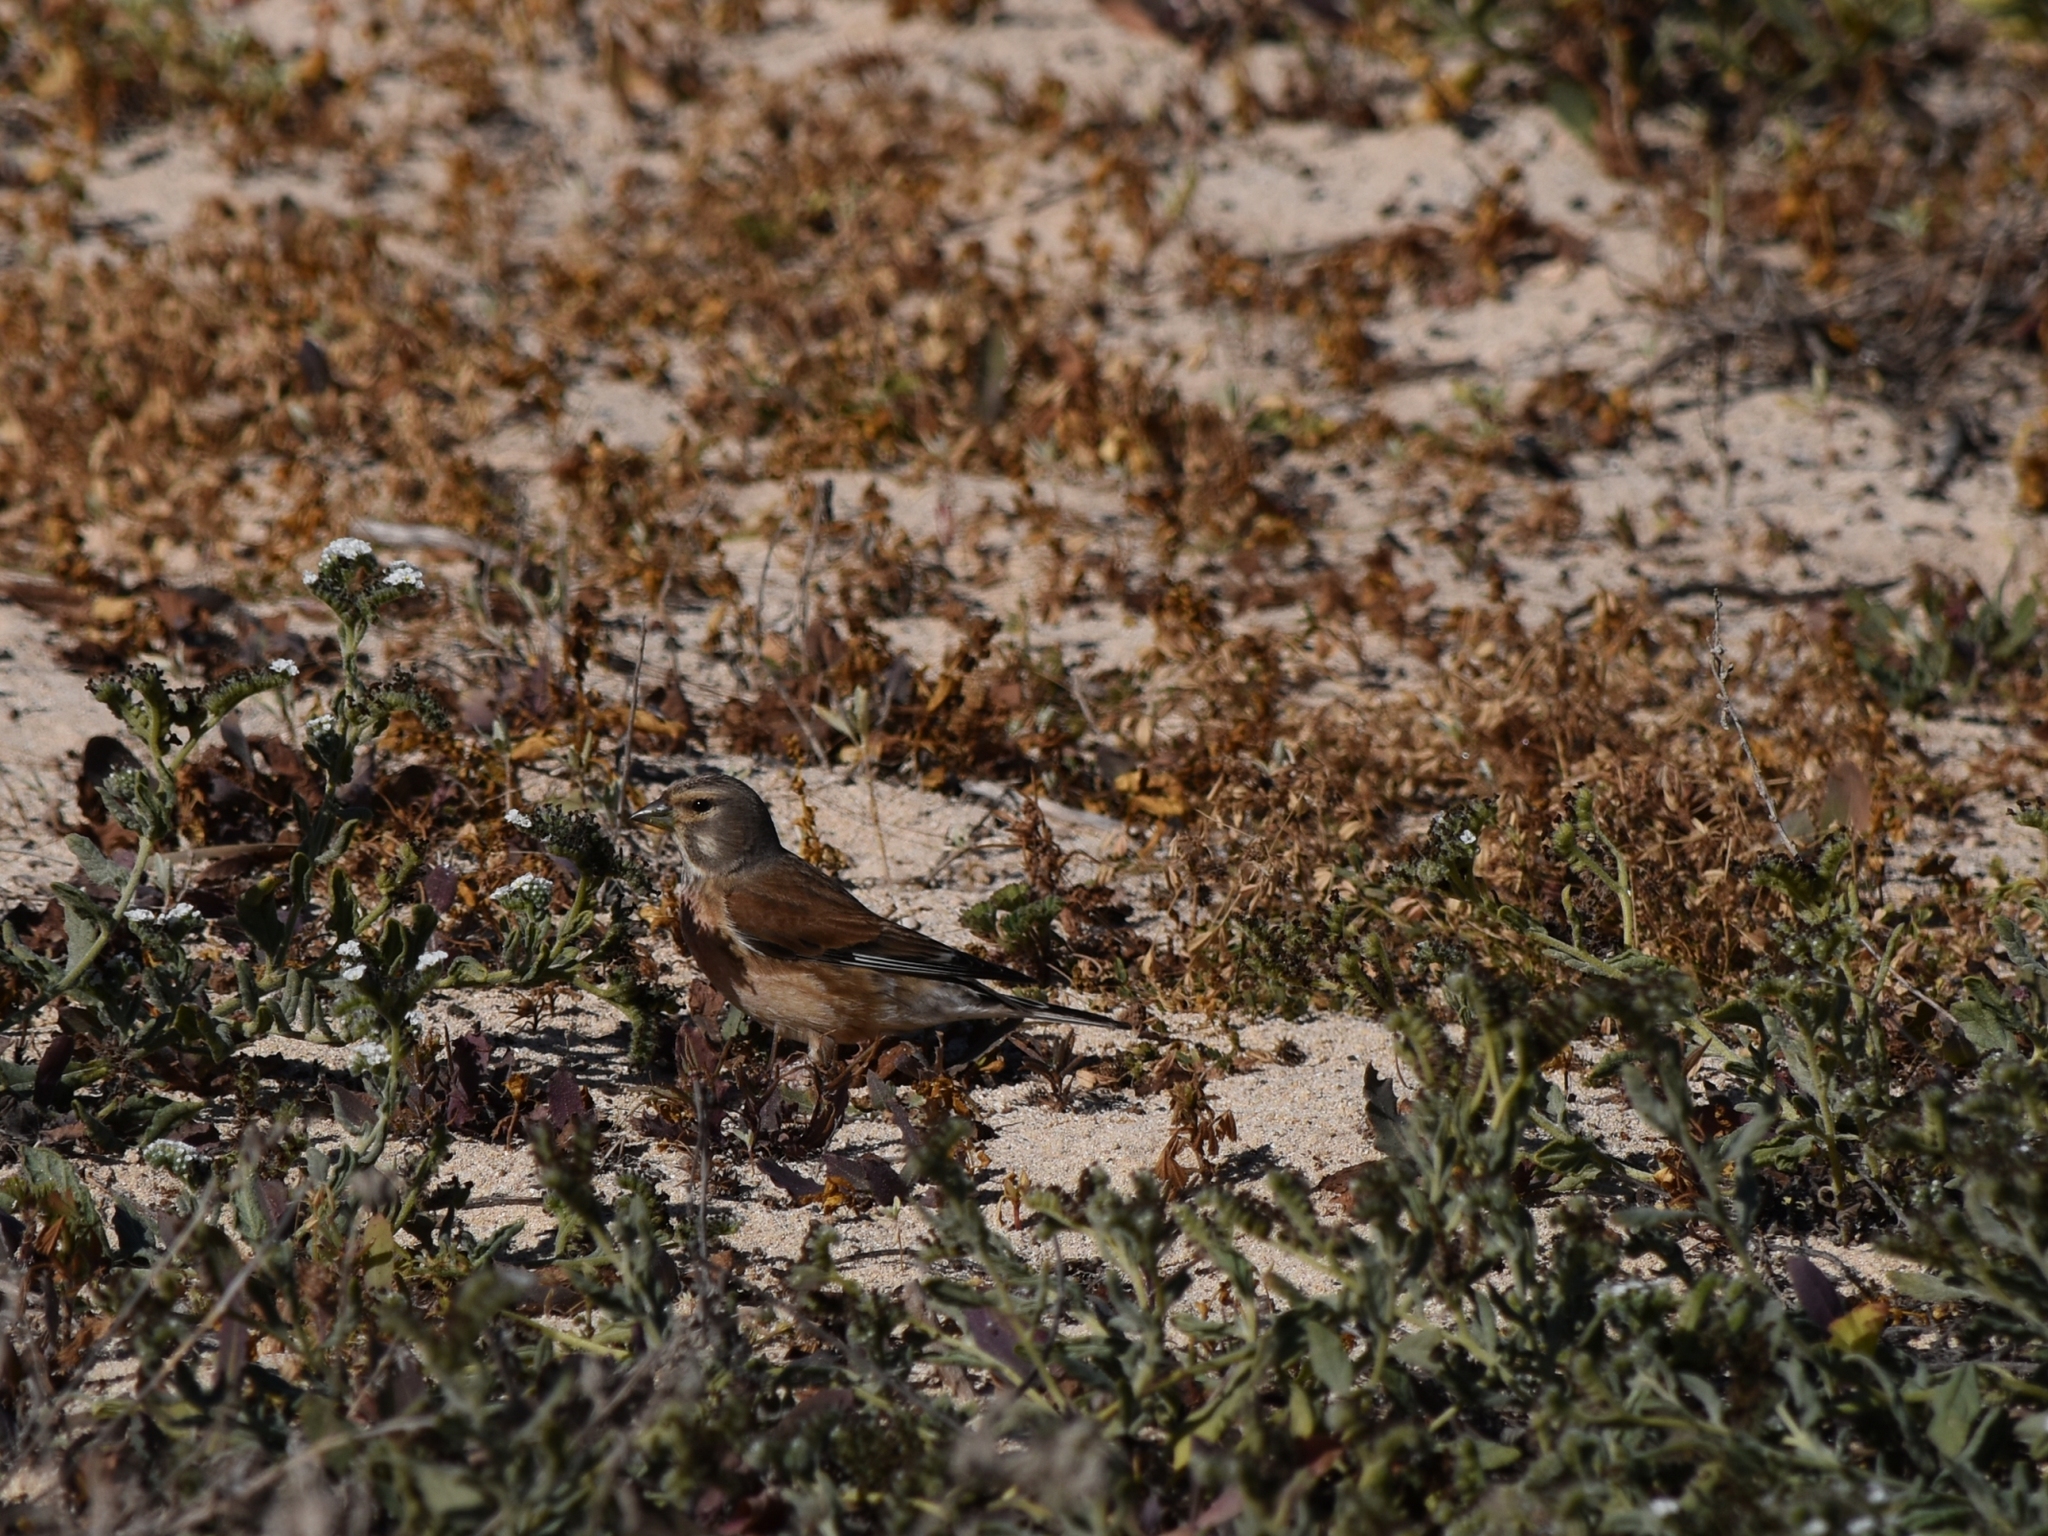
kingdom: Animalia
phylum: Chordata
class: Aves
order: Passeriformes
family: Fringillidae
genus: Linaria
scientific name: Linaria cannabina
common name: Common linnet
